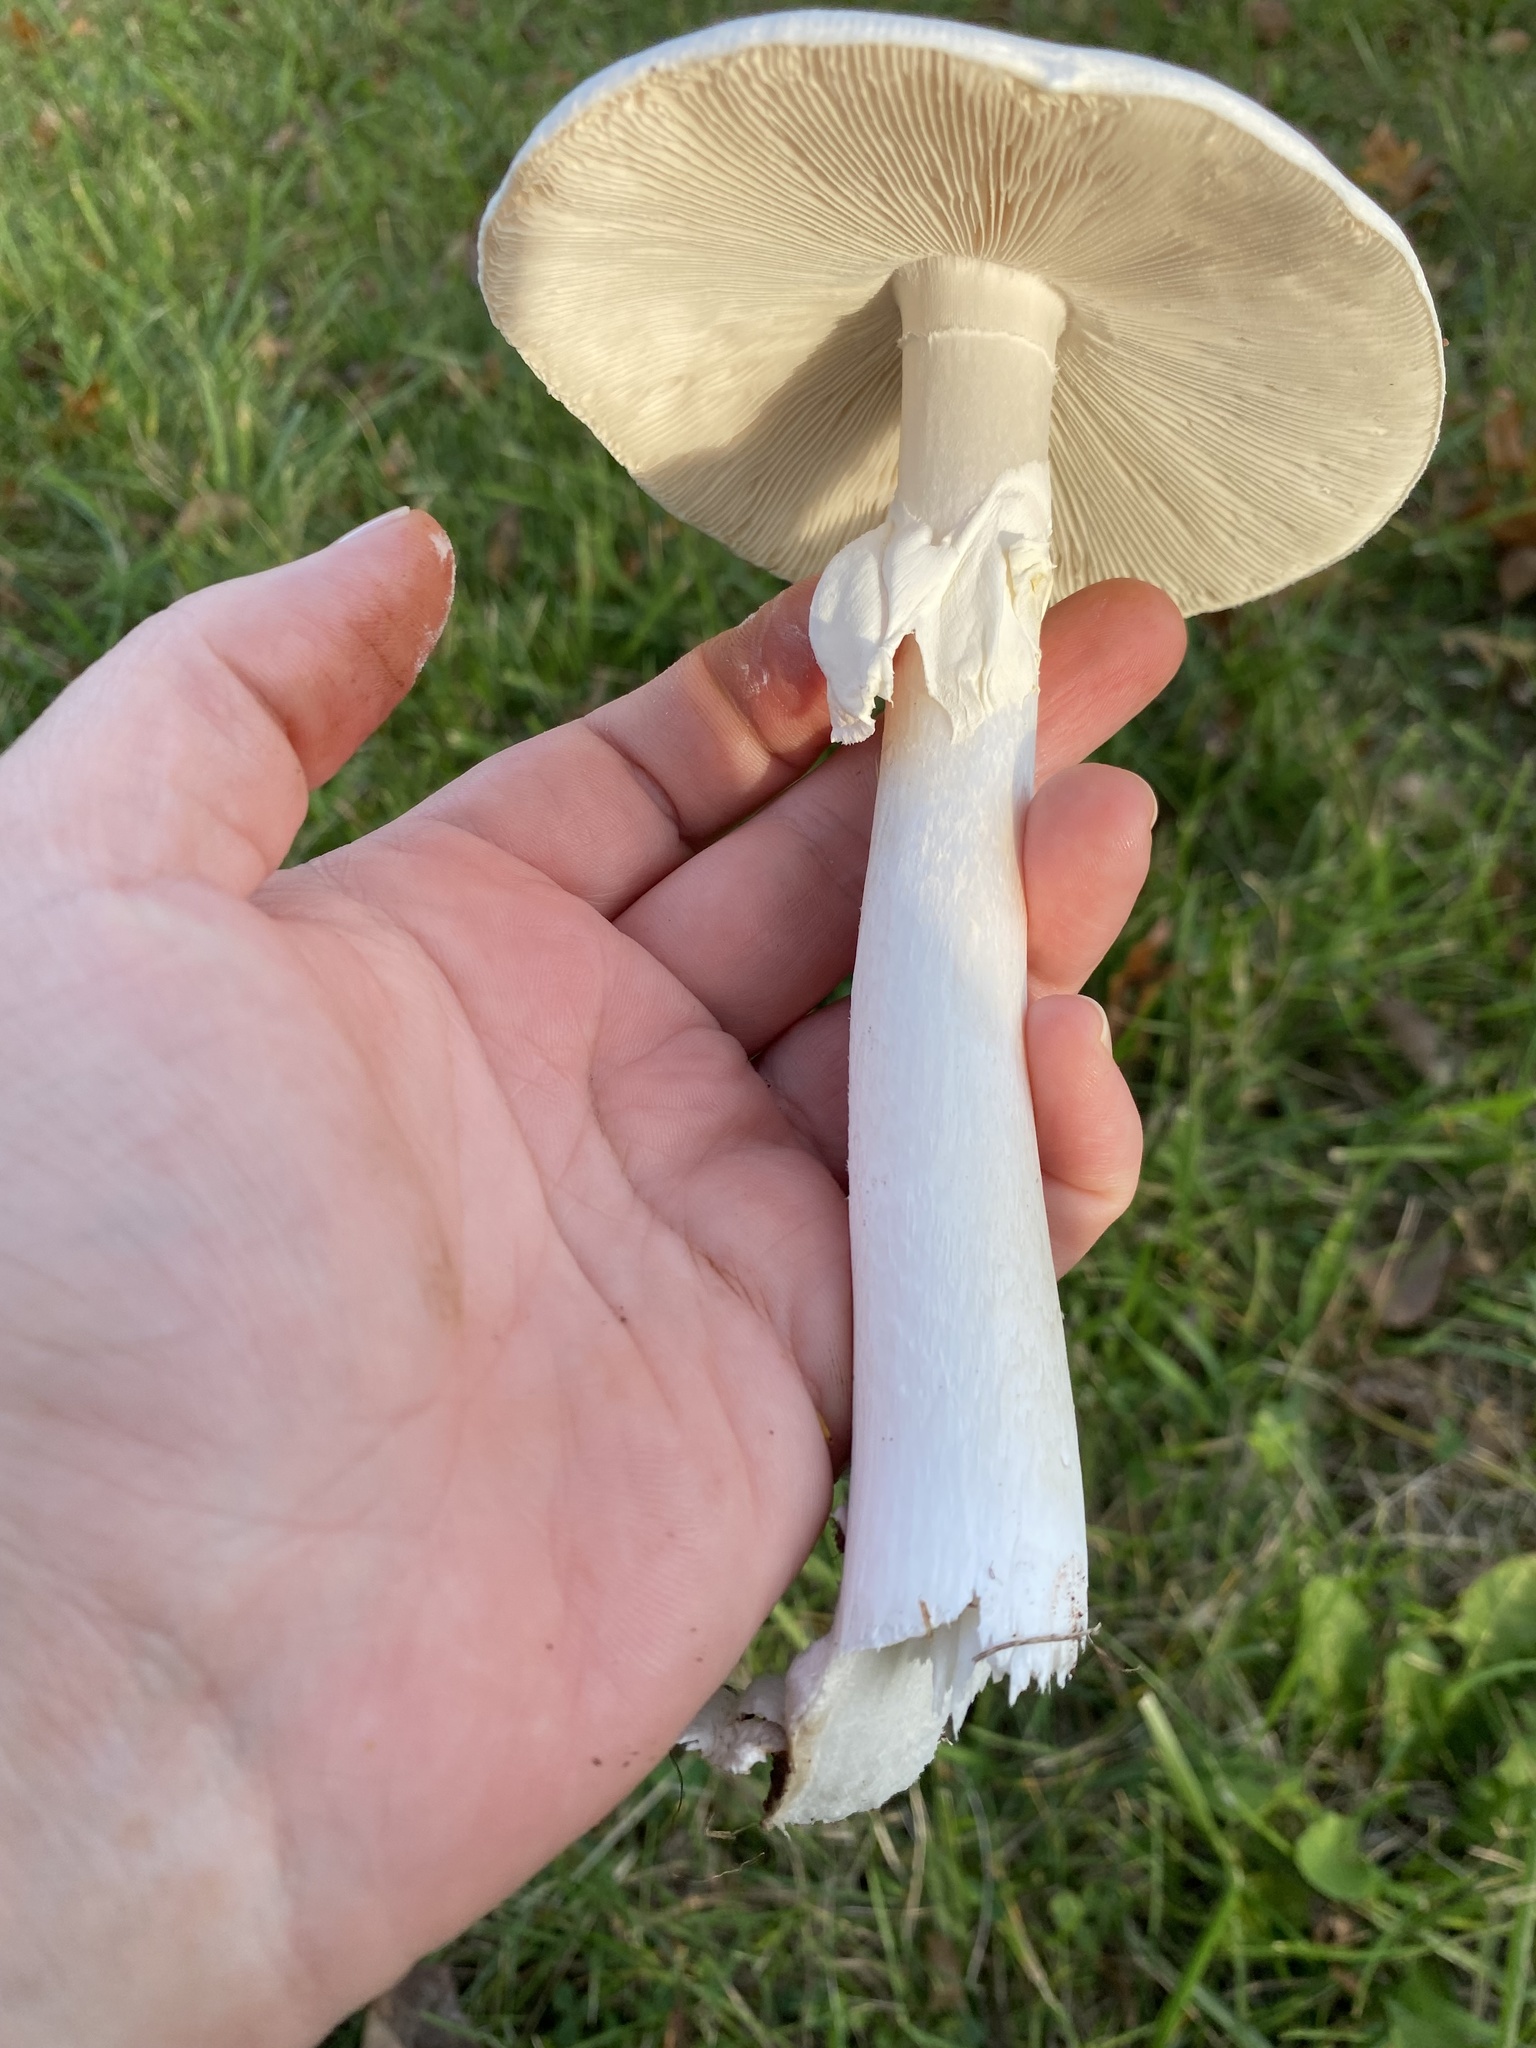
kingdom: Fungi
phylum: Basidiomycota
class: Agaricomycetes
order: Agaricales
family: Amanitaceae
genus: Amanita
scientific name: Amanita bisporigera
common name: Eastern north american destroying angel
